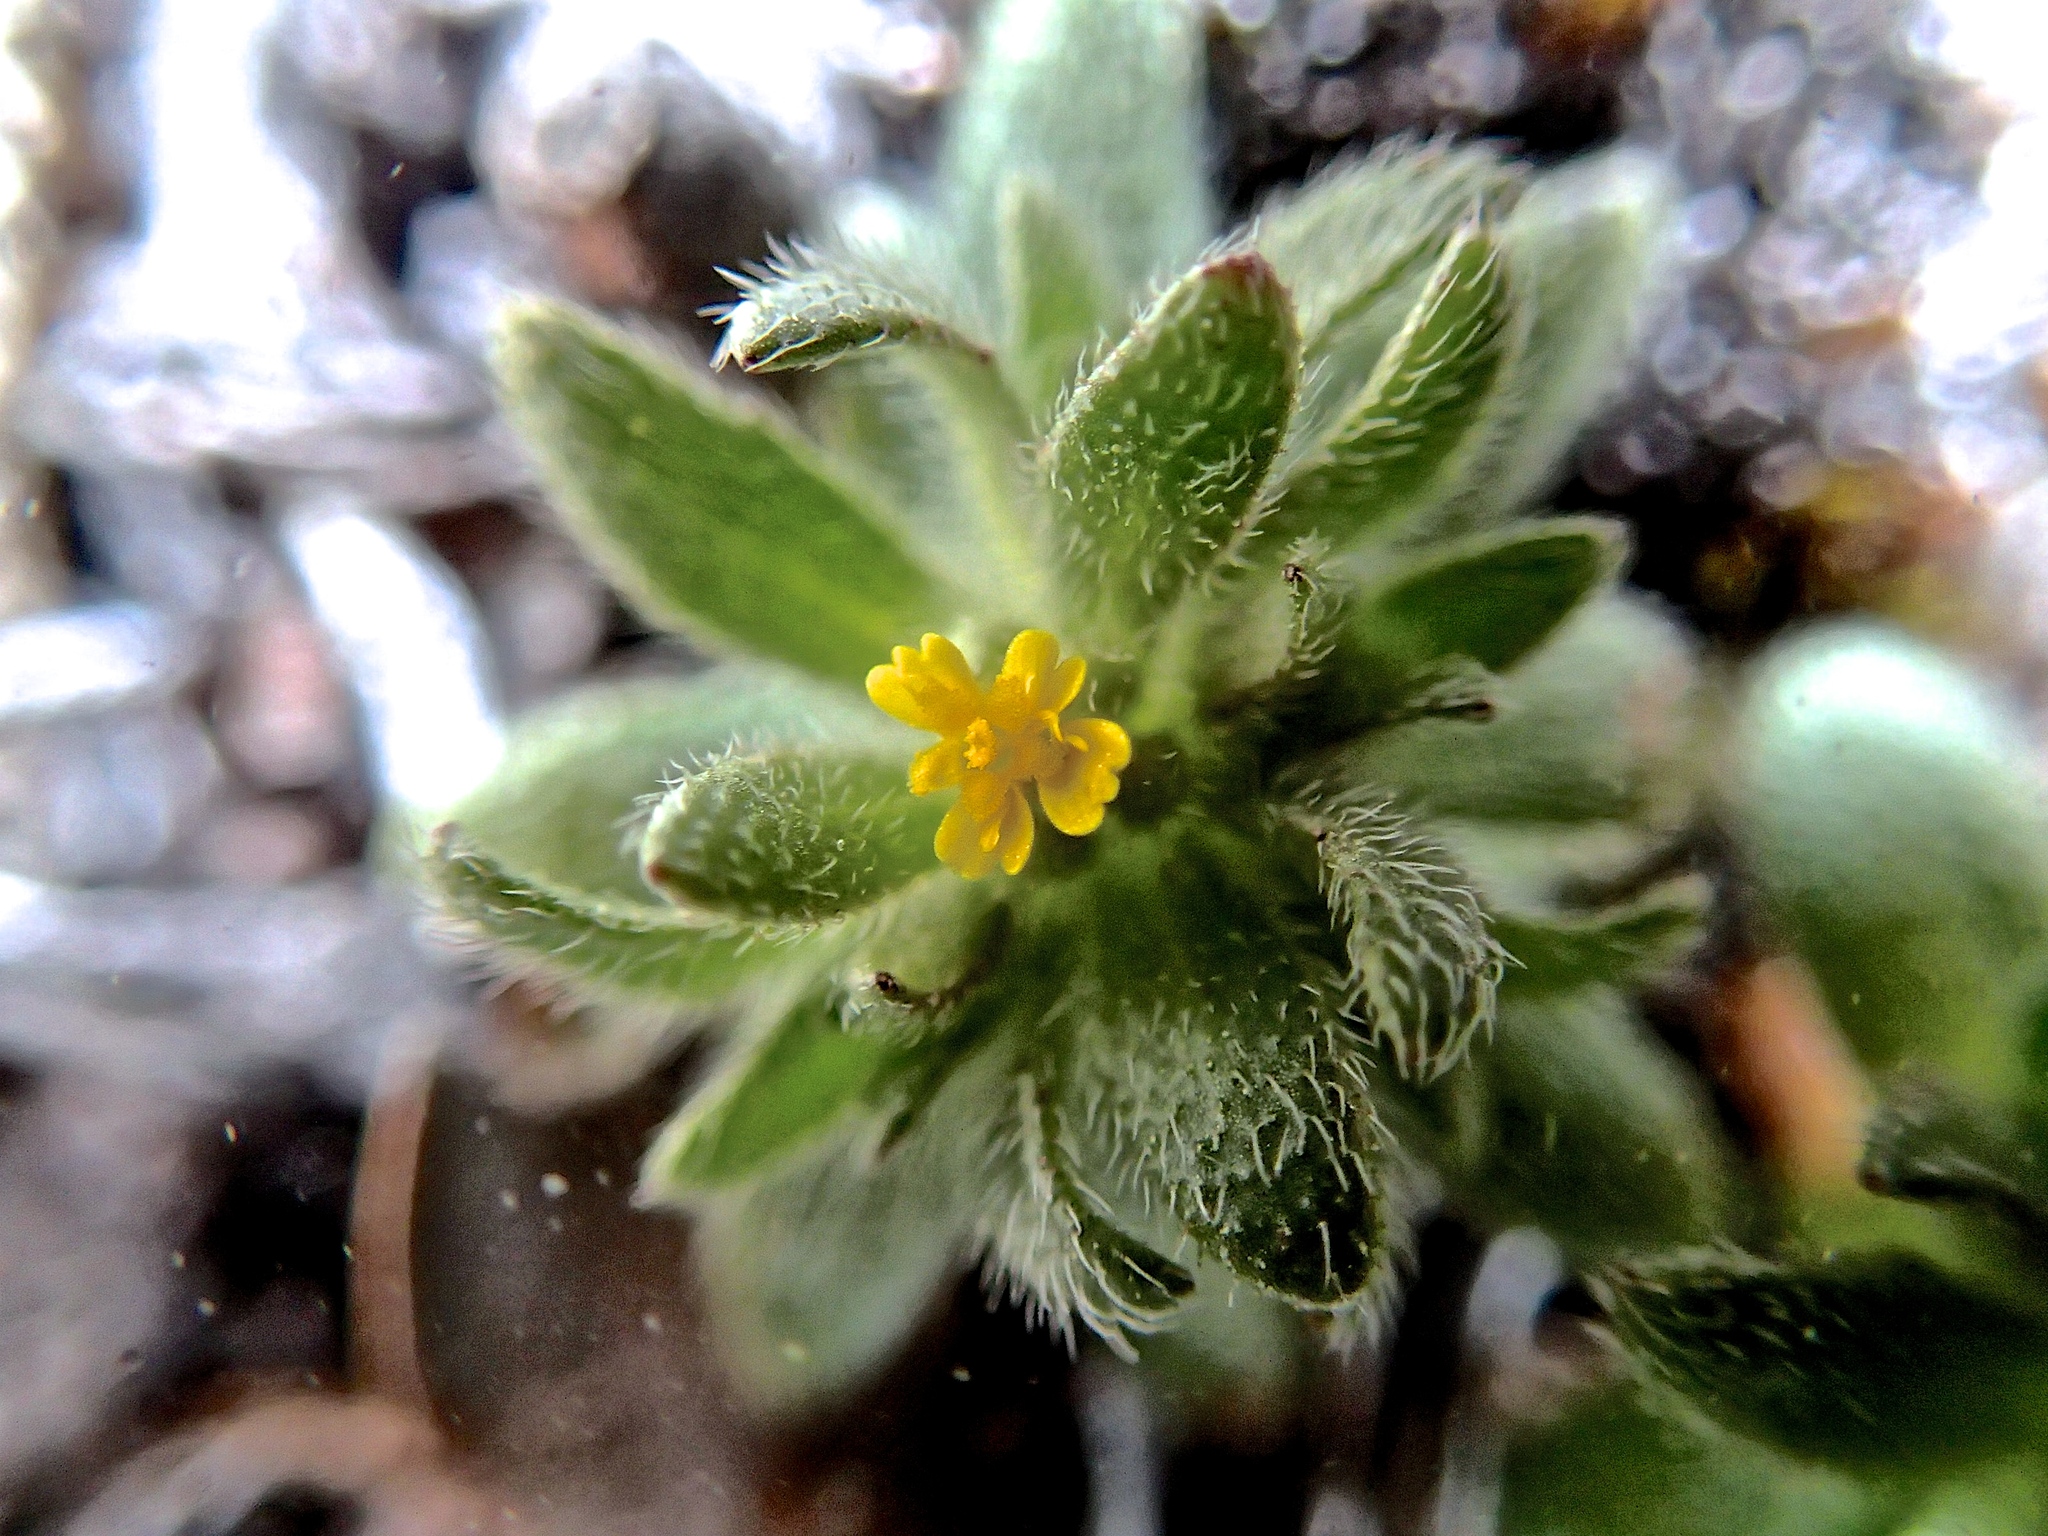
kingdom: Plantae
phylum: Tracheophyta
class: Magnoliopsida
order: Asterales
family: Asteraceae
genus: Hemizonella
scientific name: Hemizonella minima
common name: Opposite-leaved tarweed
